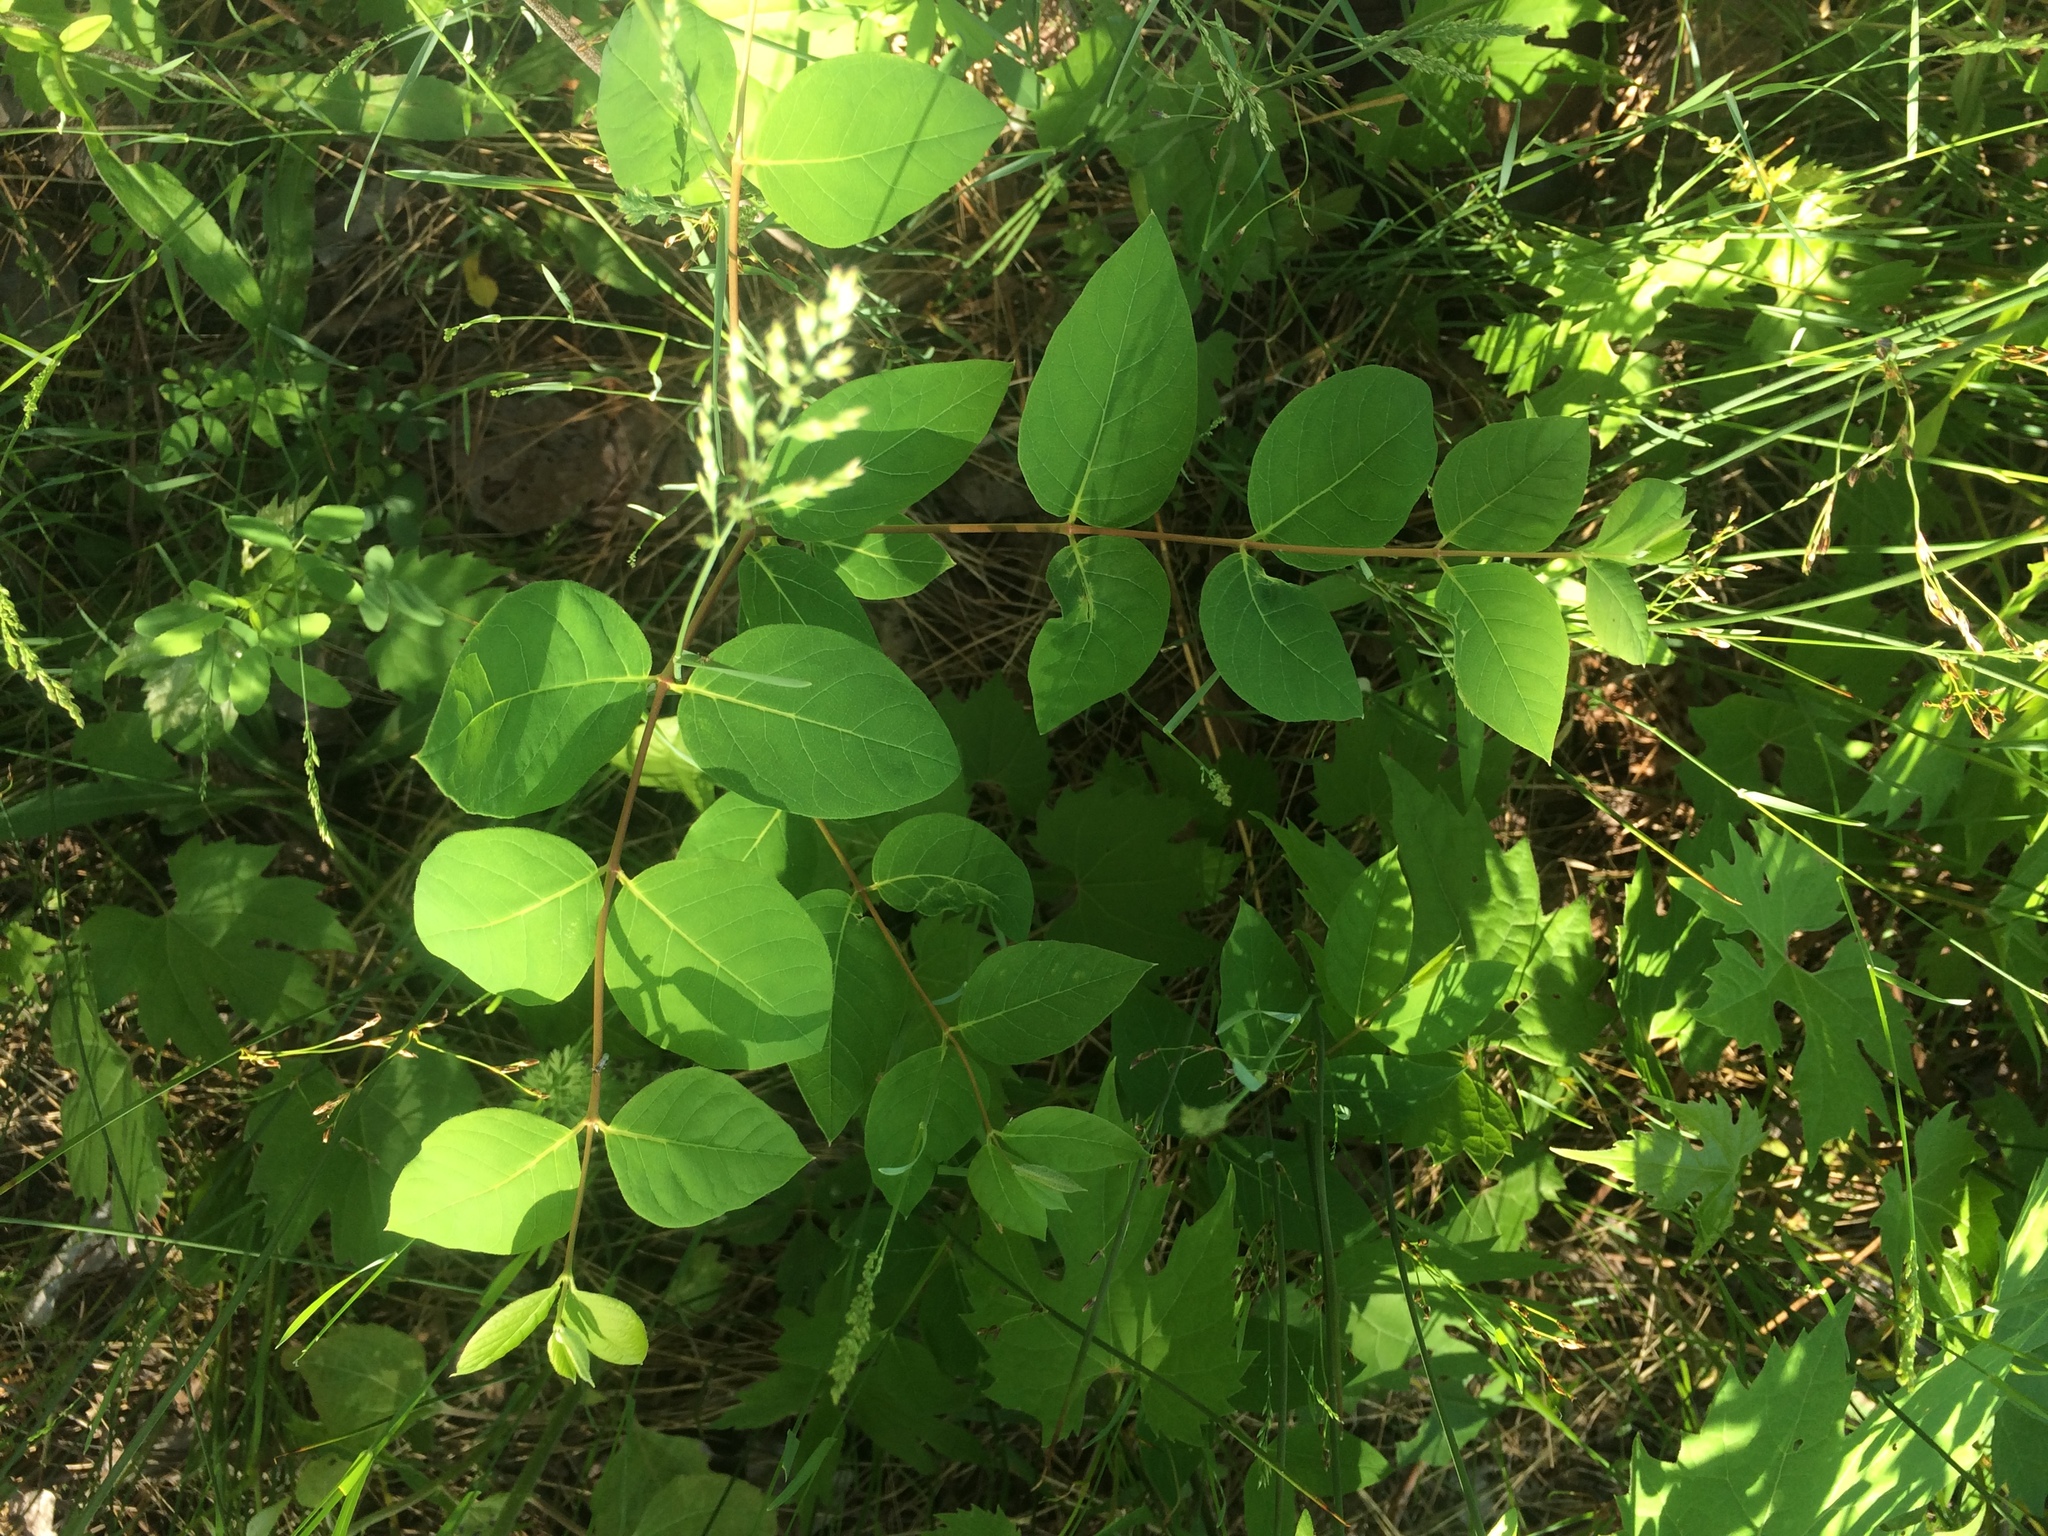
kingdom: Plantae
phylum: Tracheophyta
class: Magnoliopsida
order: Gentianales
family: Apocynaceae
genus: Apocynum
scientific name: Apocynum androsaemifolium
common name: Spreading dogbane
